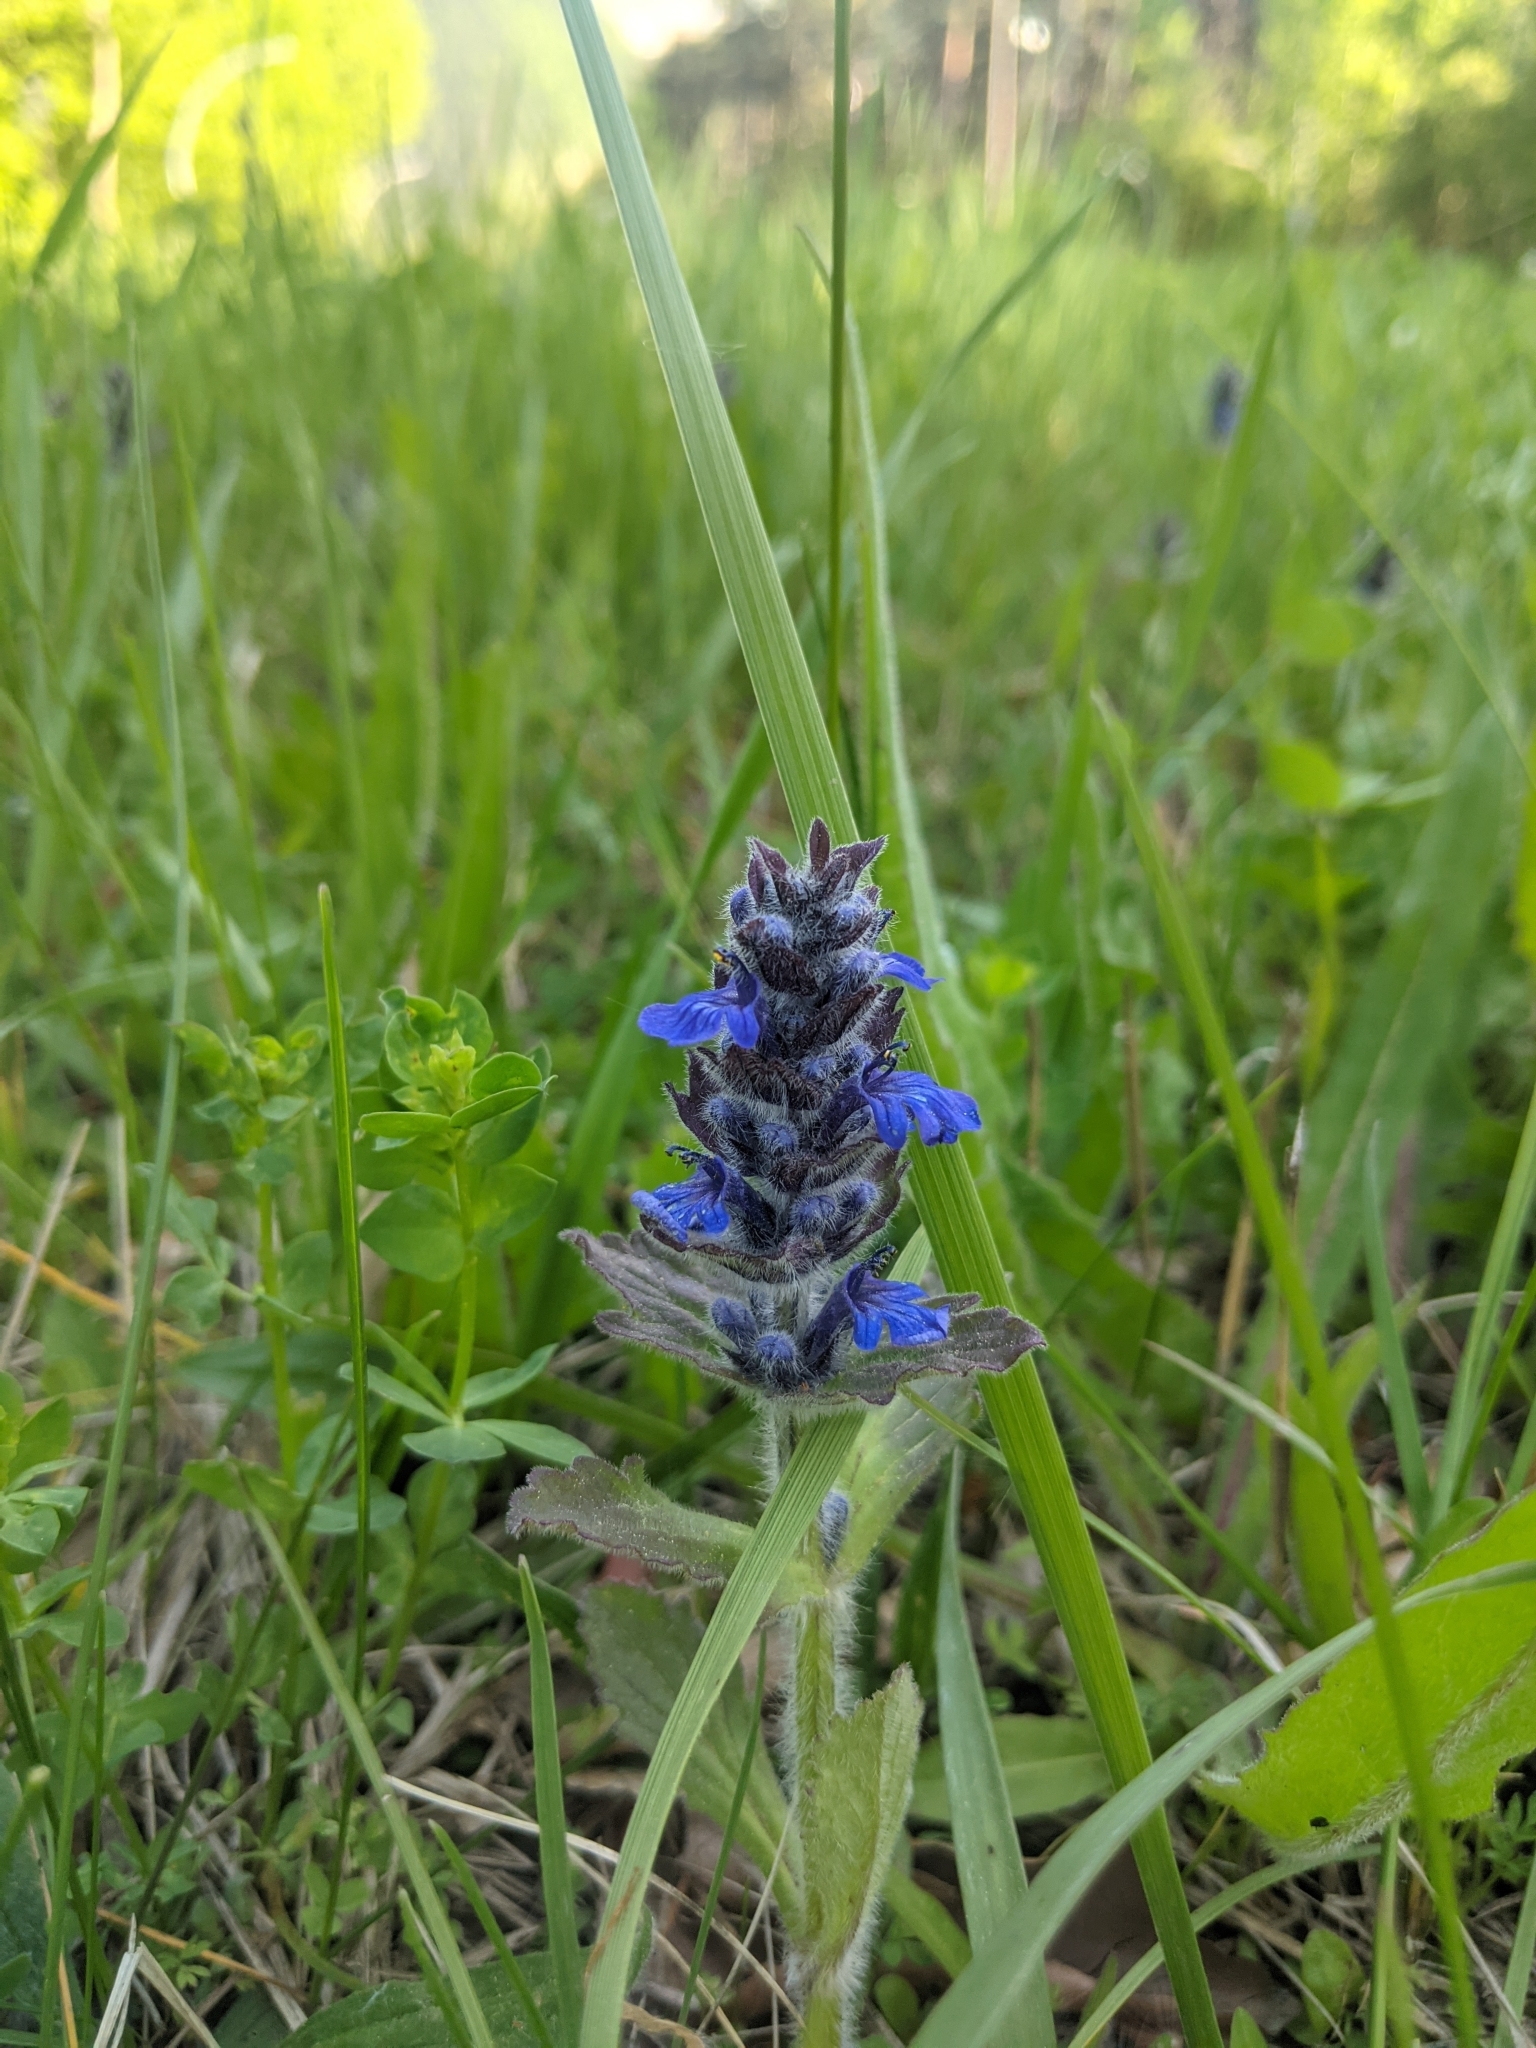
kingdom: Plantae
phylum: Tracheophyta
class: Magnoliopsida
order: Lamiales
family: Lamiaceae
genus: Ajuga
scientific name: Ajuga genevensis
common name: Blue bugle
